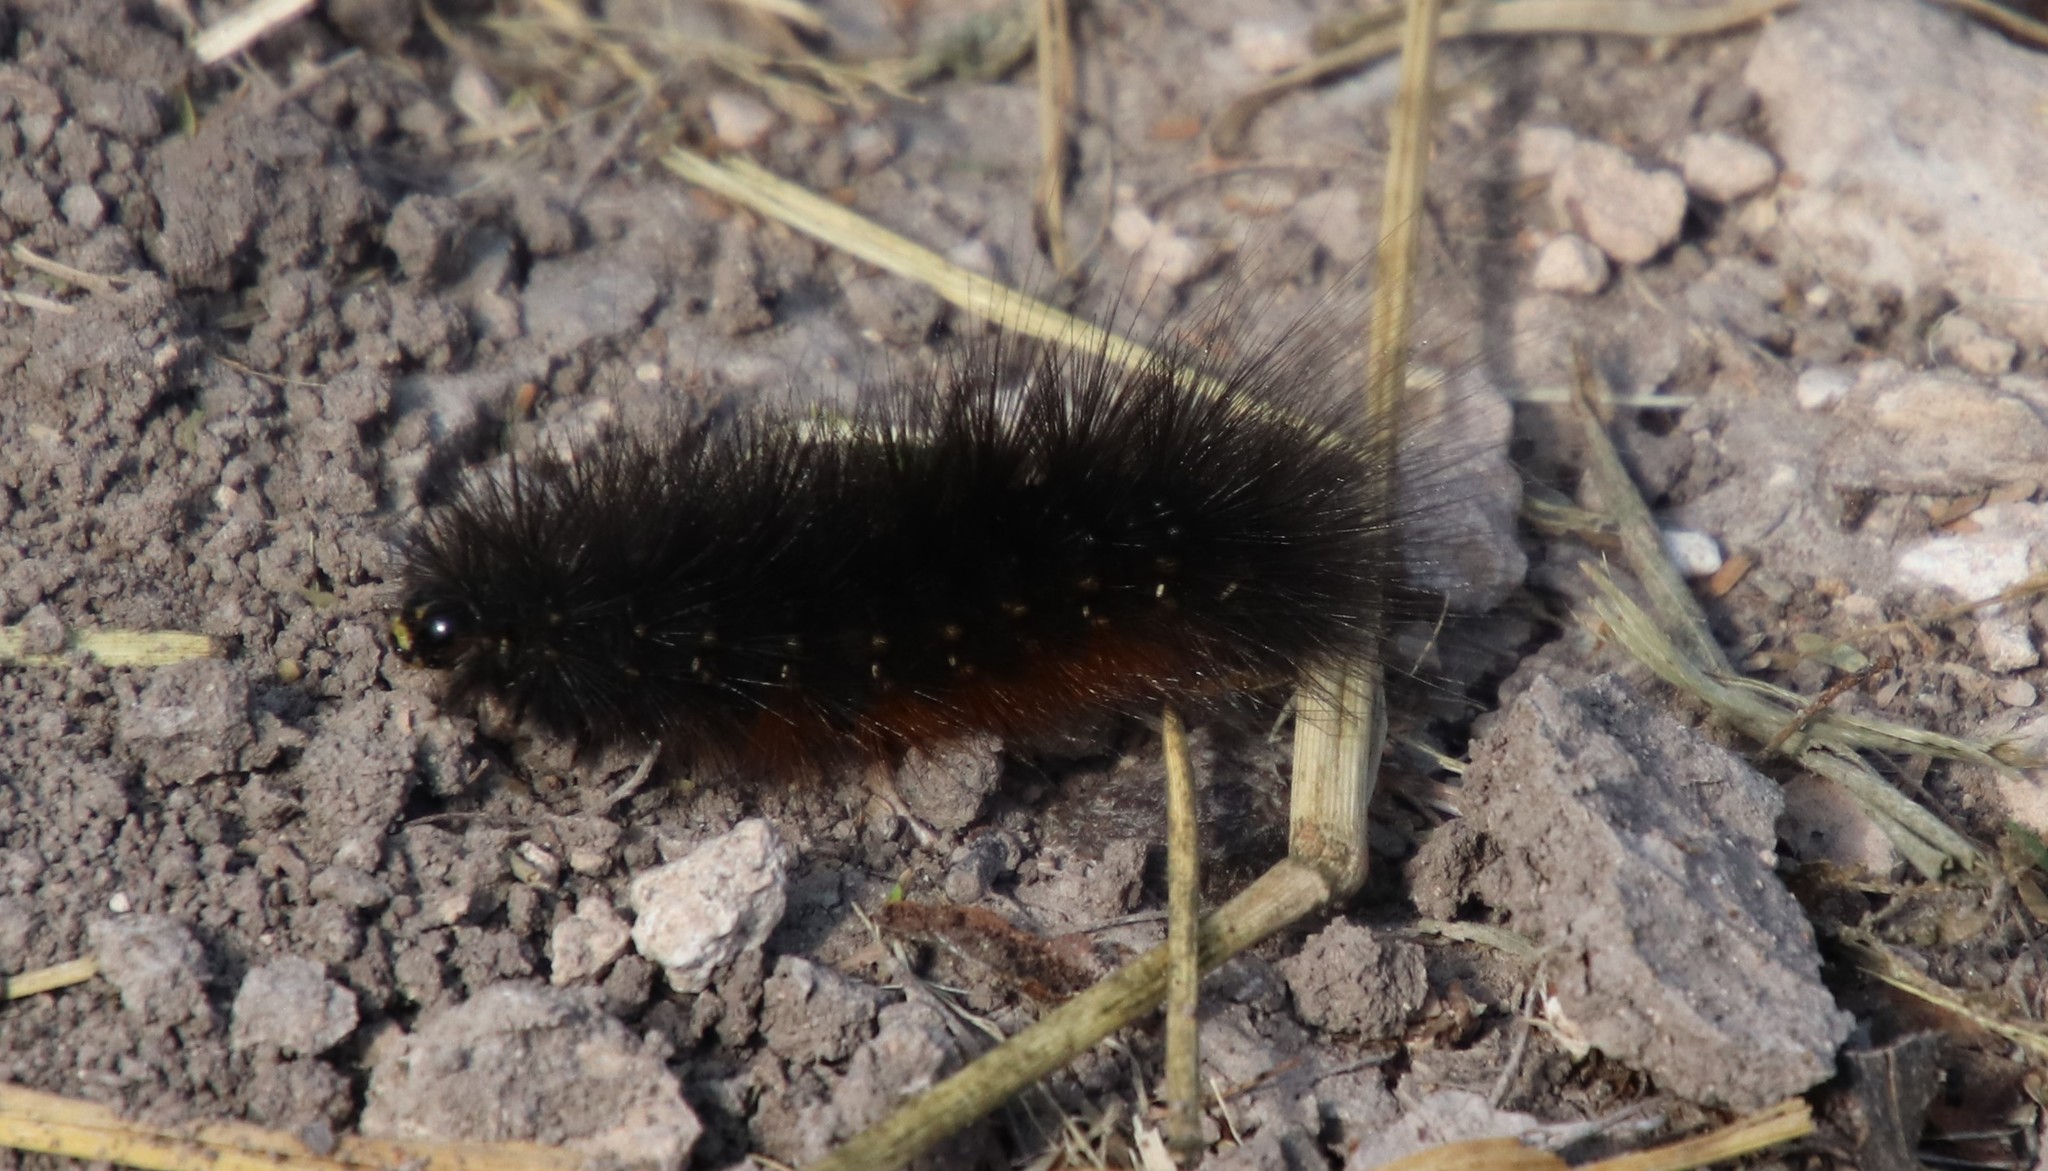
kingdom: Animalia
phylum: Arthropoda
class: Insecta
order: Lepidoptera
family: Erebidae
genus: Estigmene
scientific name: Estigmene acrea
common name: Salt marsh moth
